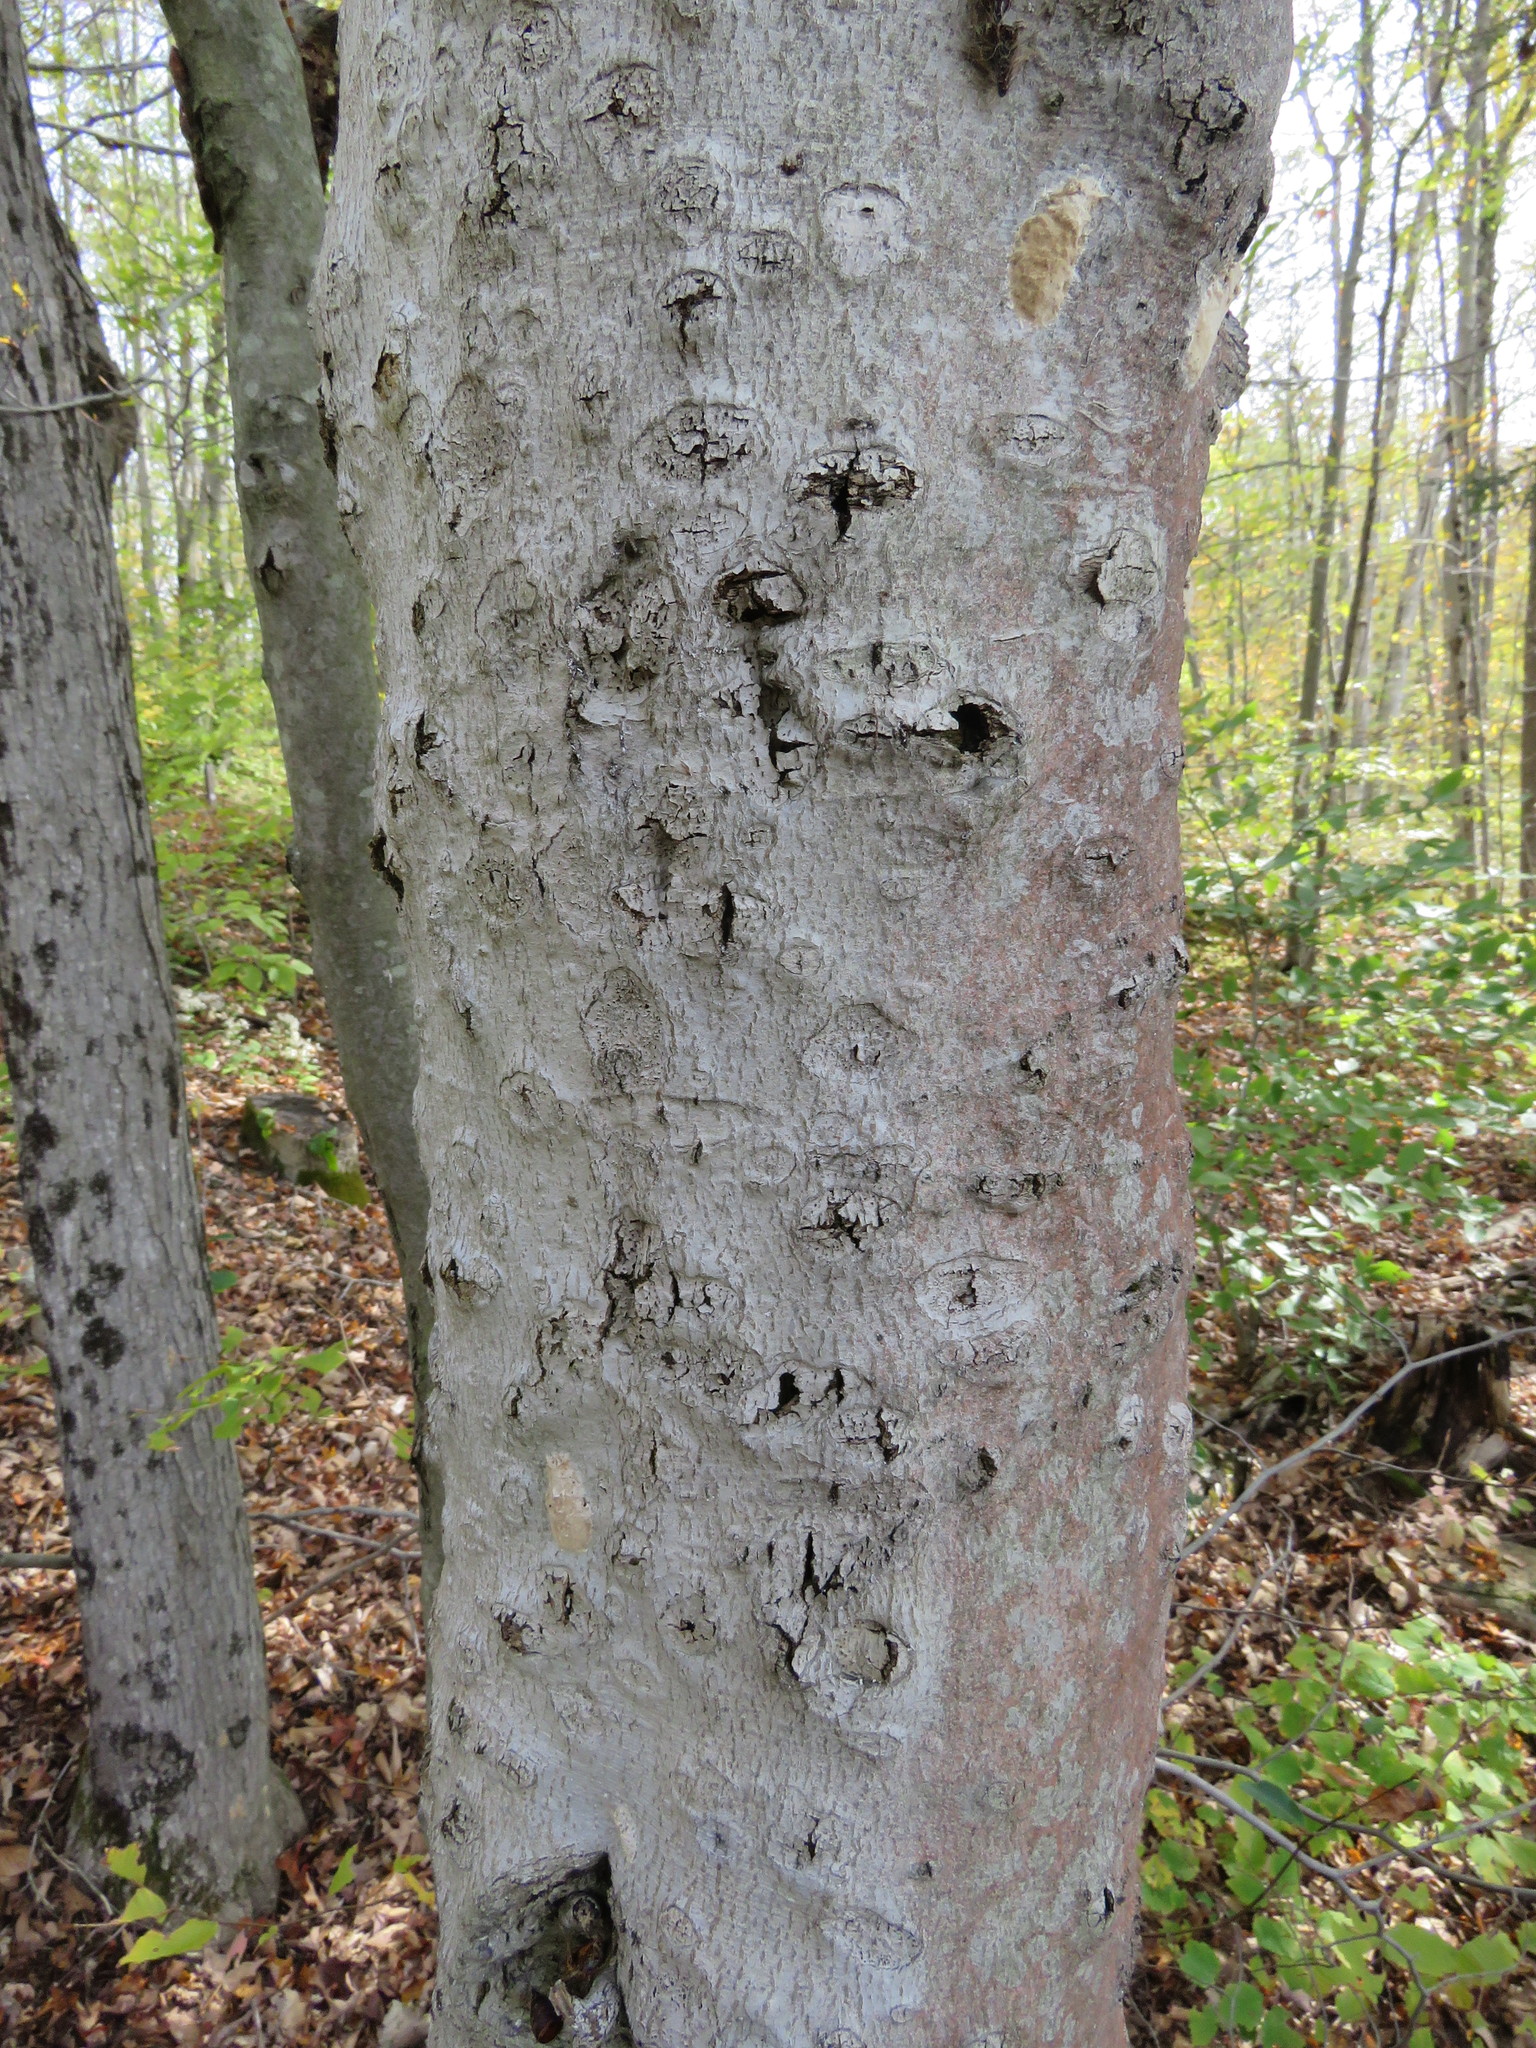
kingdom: Fungi
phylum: Ascomycota
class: Sordariomycetes
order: Hypocreales
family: Nectriaceae
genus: Neonectria
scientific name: Neonectria faginata
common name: Beech bark canker
